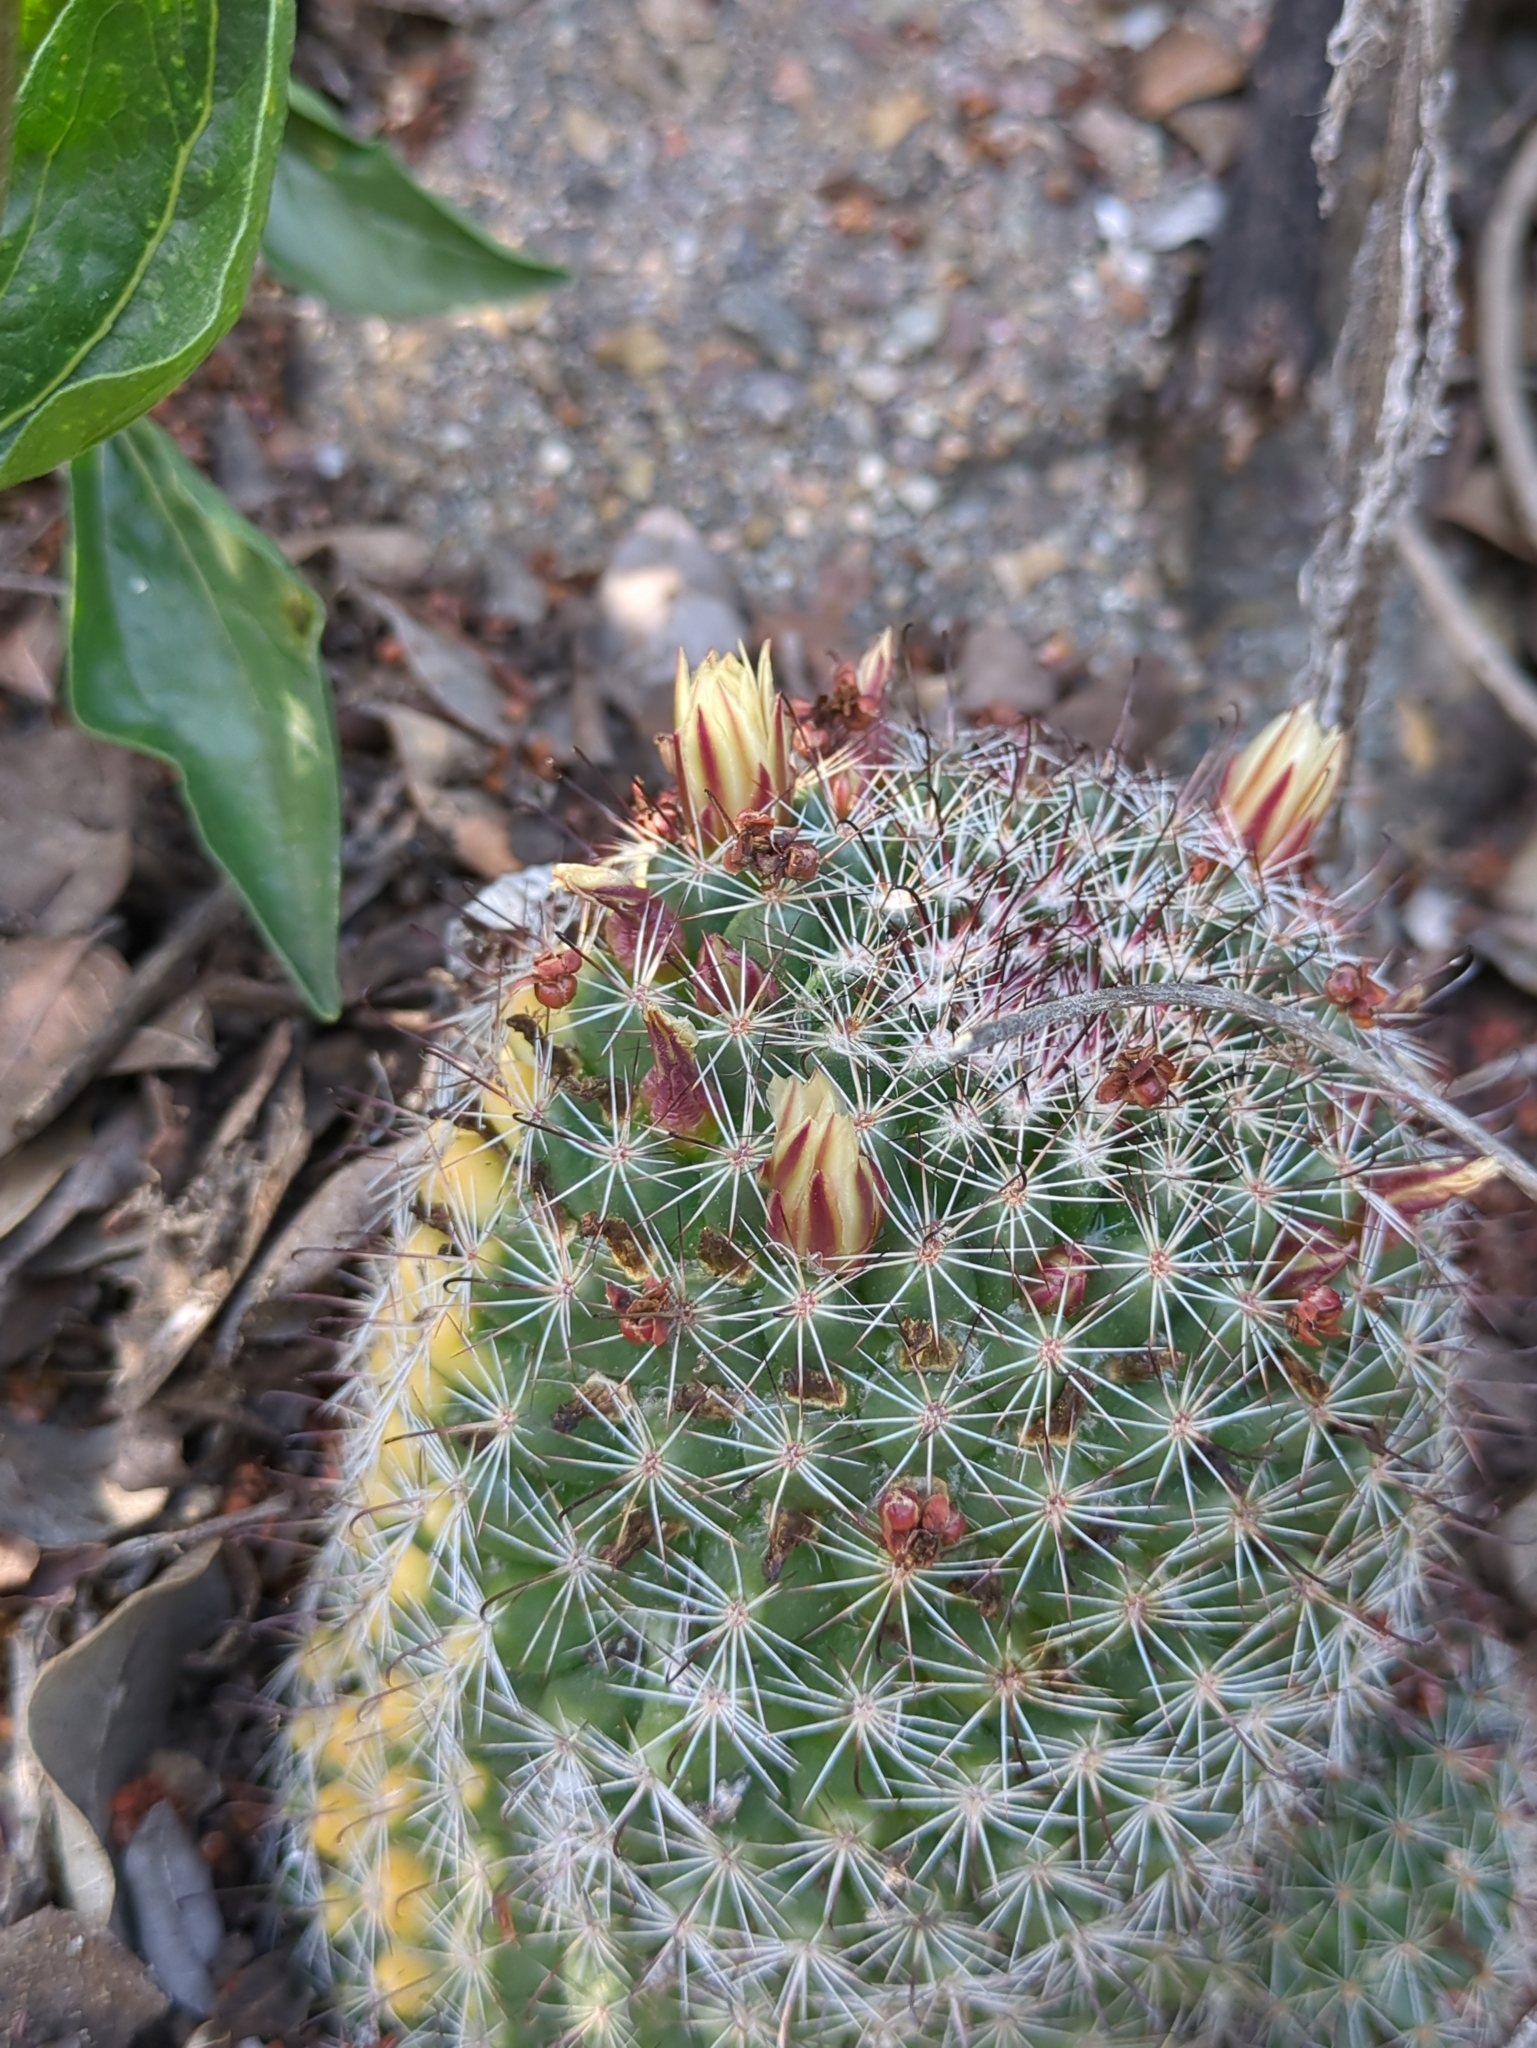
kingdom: Plantae
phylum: Tracheophyta
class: Magnoliopsida
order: Caryophyllales
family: Cactaceae
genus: Cochemiea
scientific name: Cochemiea dioica
